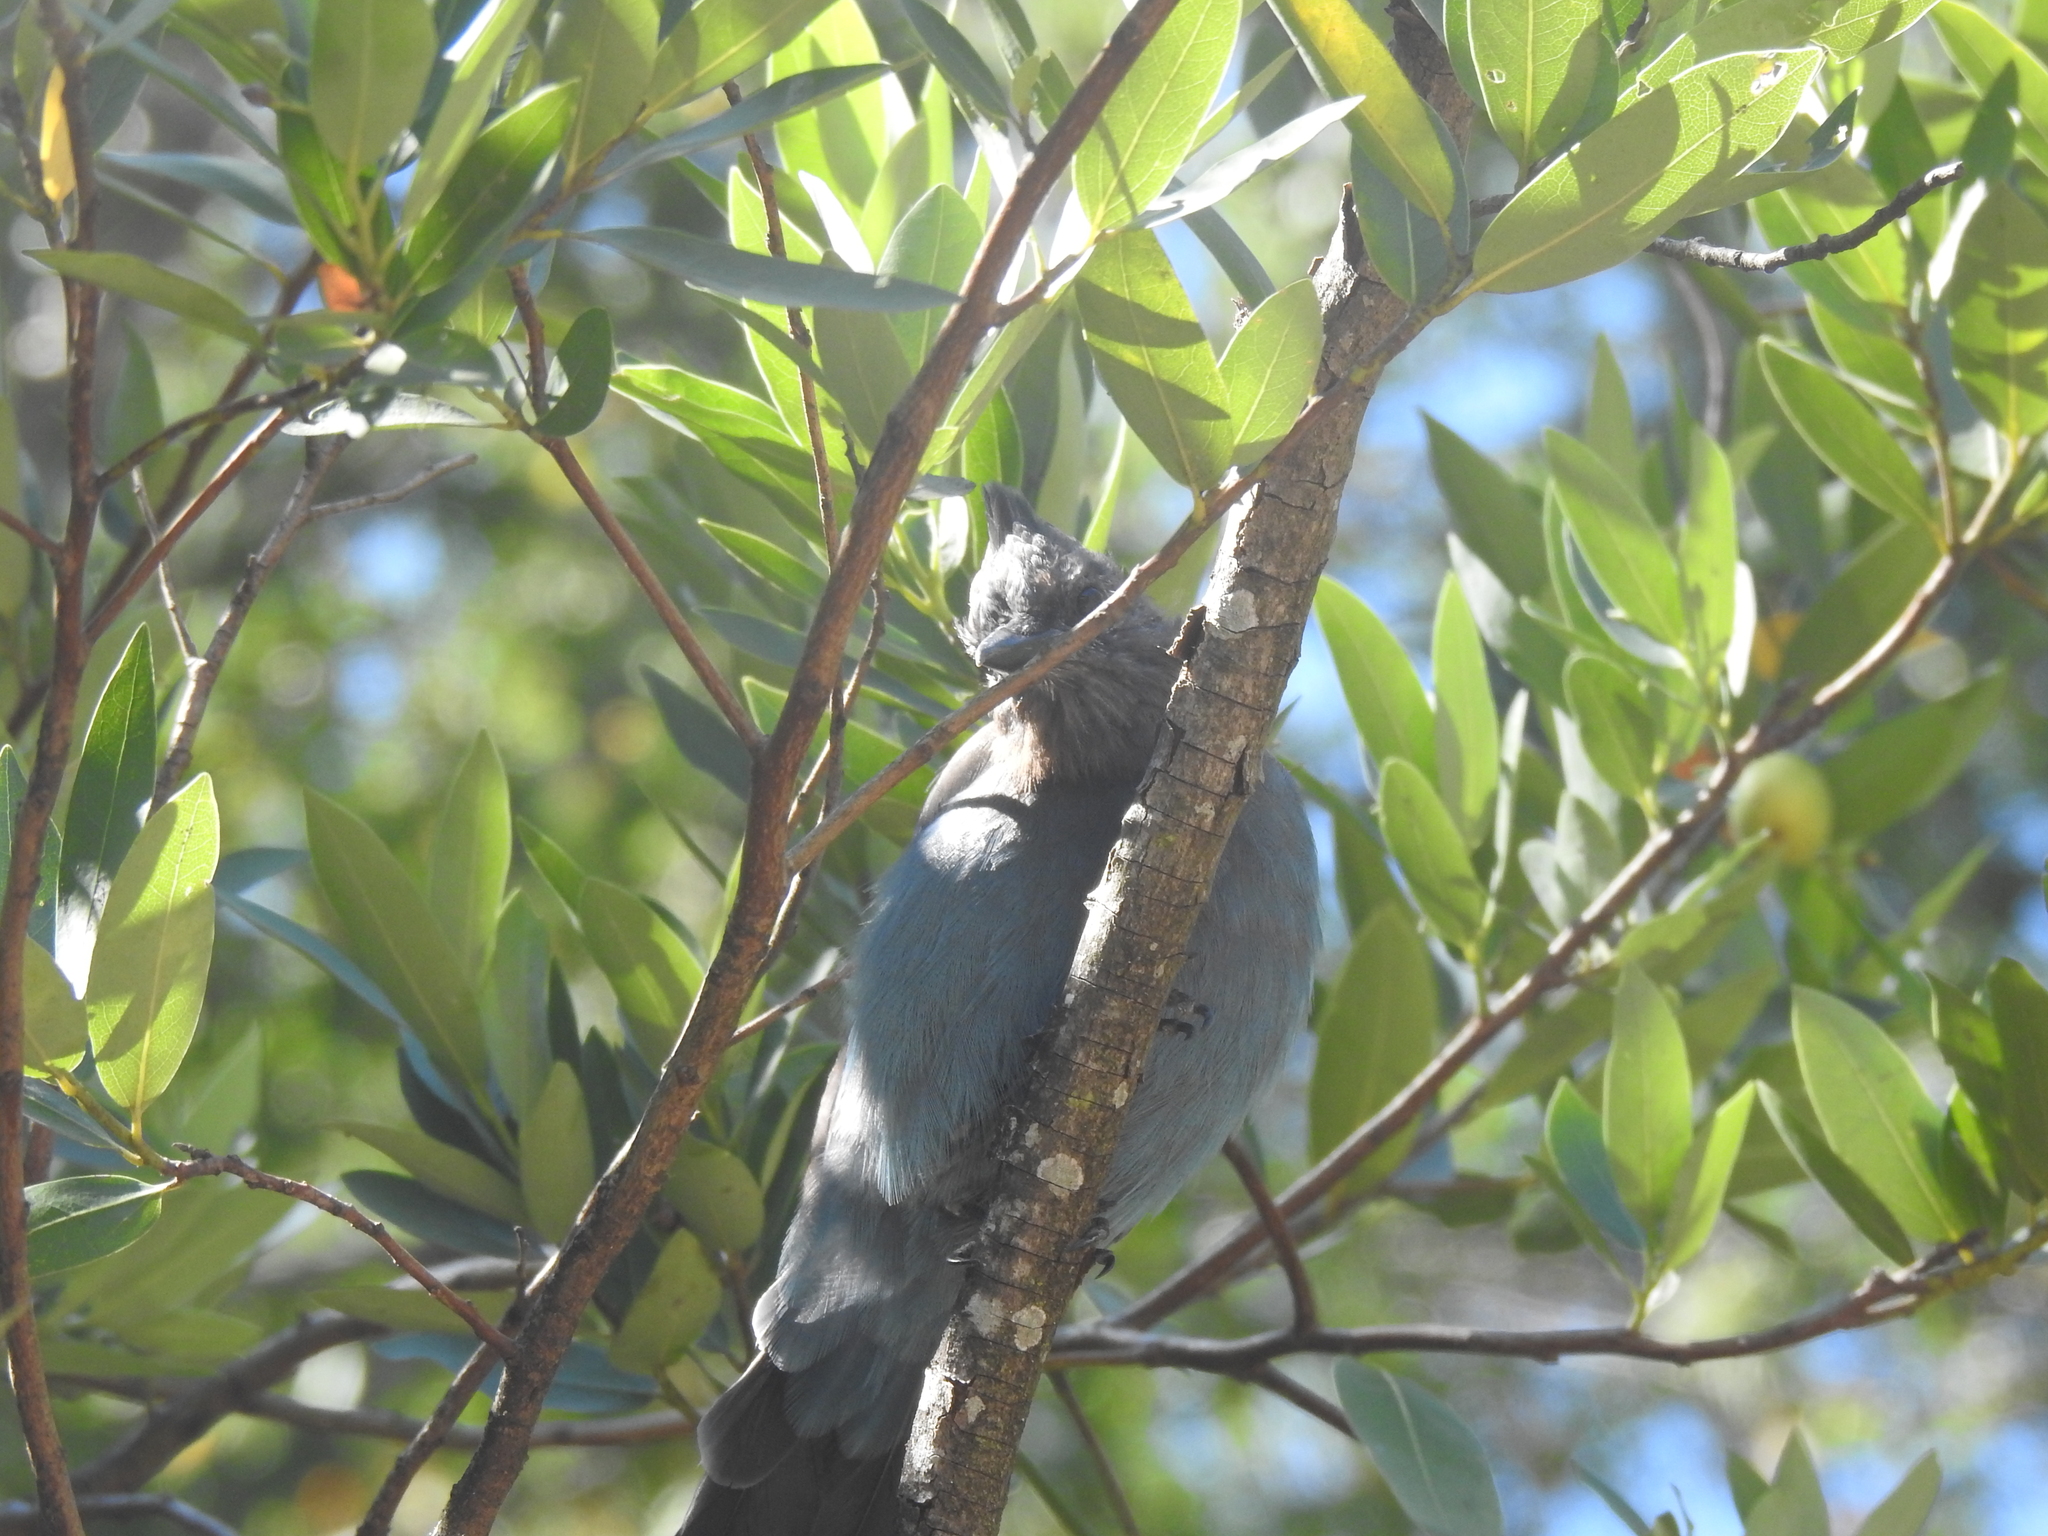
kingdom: Animalia
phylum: Chordata
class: Aves
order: Passeriformes
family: Corvidae
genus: Cyanocitta
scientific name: Cyanocitta stelleri
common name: Steller's jay
